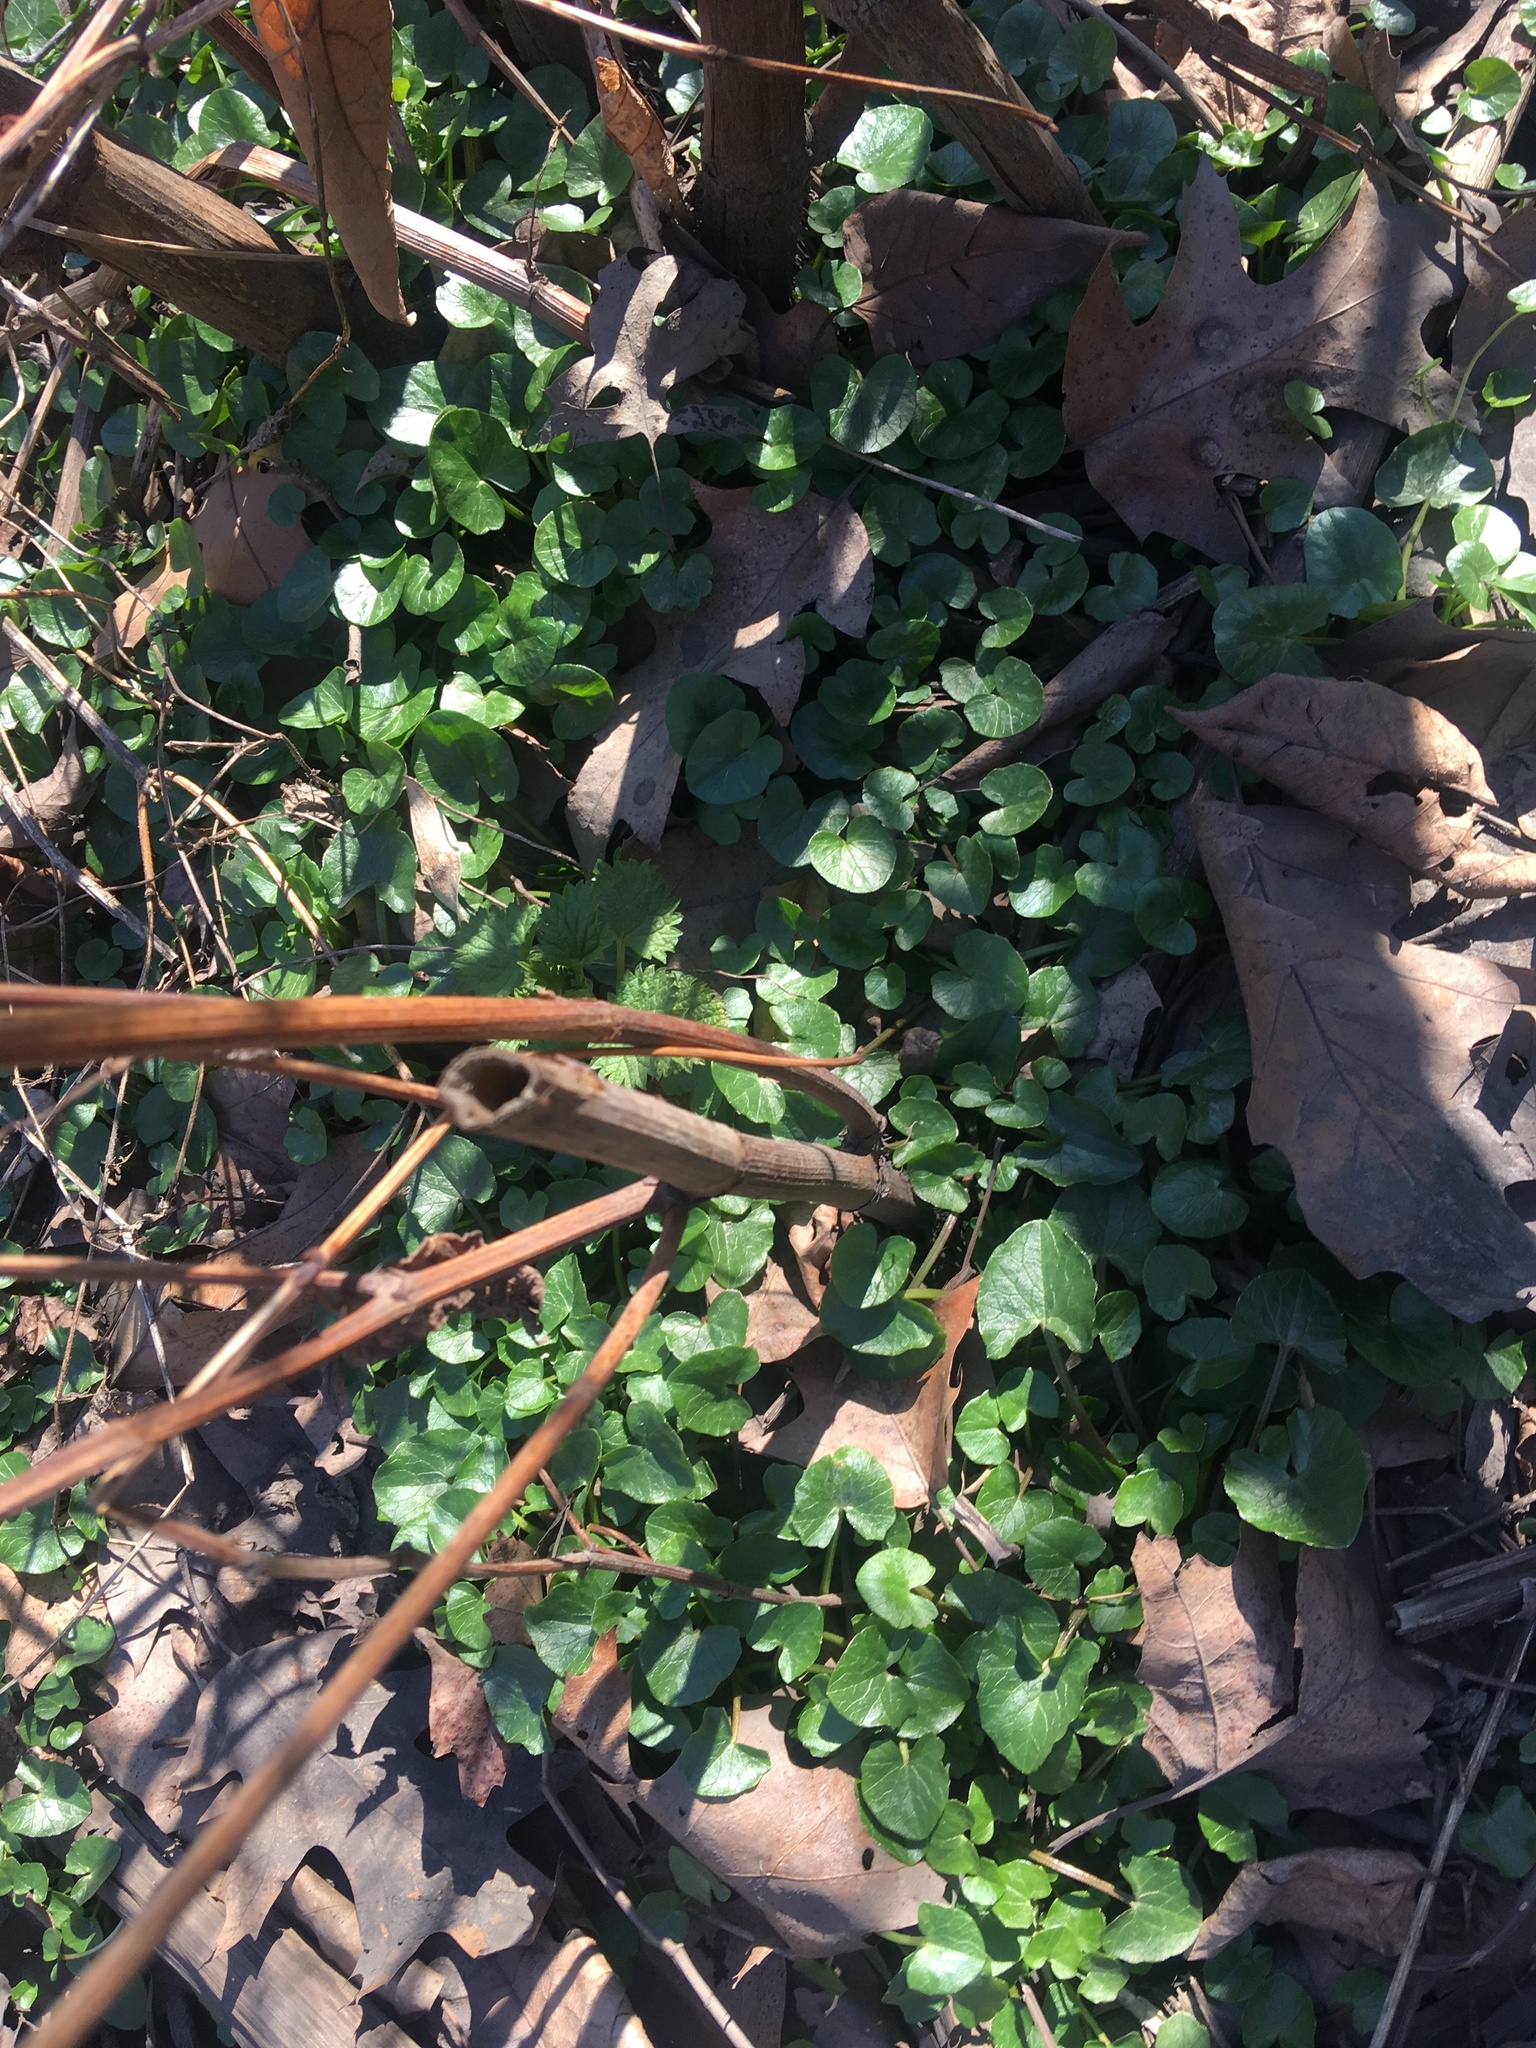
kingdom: Plantae
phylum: Tracheophyta
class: Magnoliopsida
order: Ranunculales
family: Ranunculaceae
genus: Ficaria
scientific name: Ficaria verna
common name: Lesser celandine
